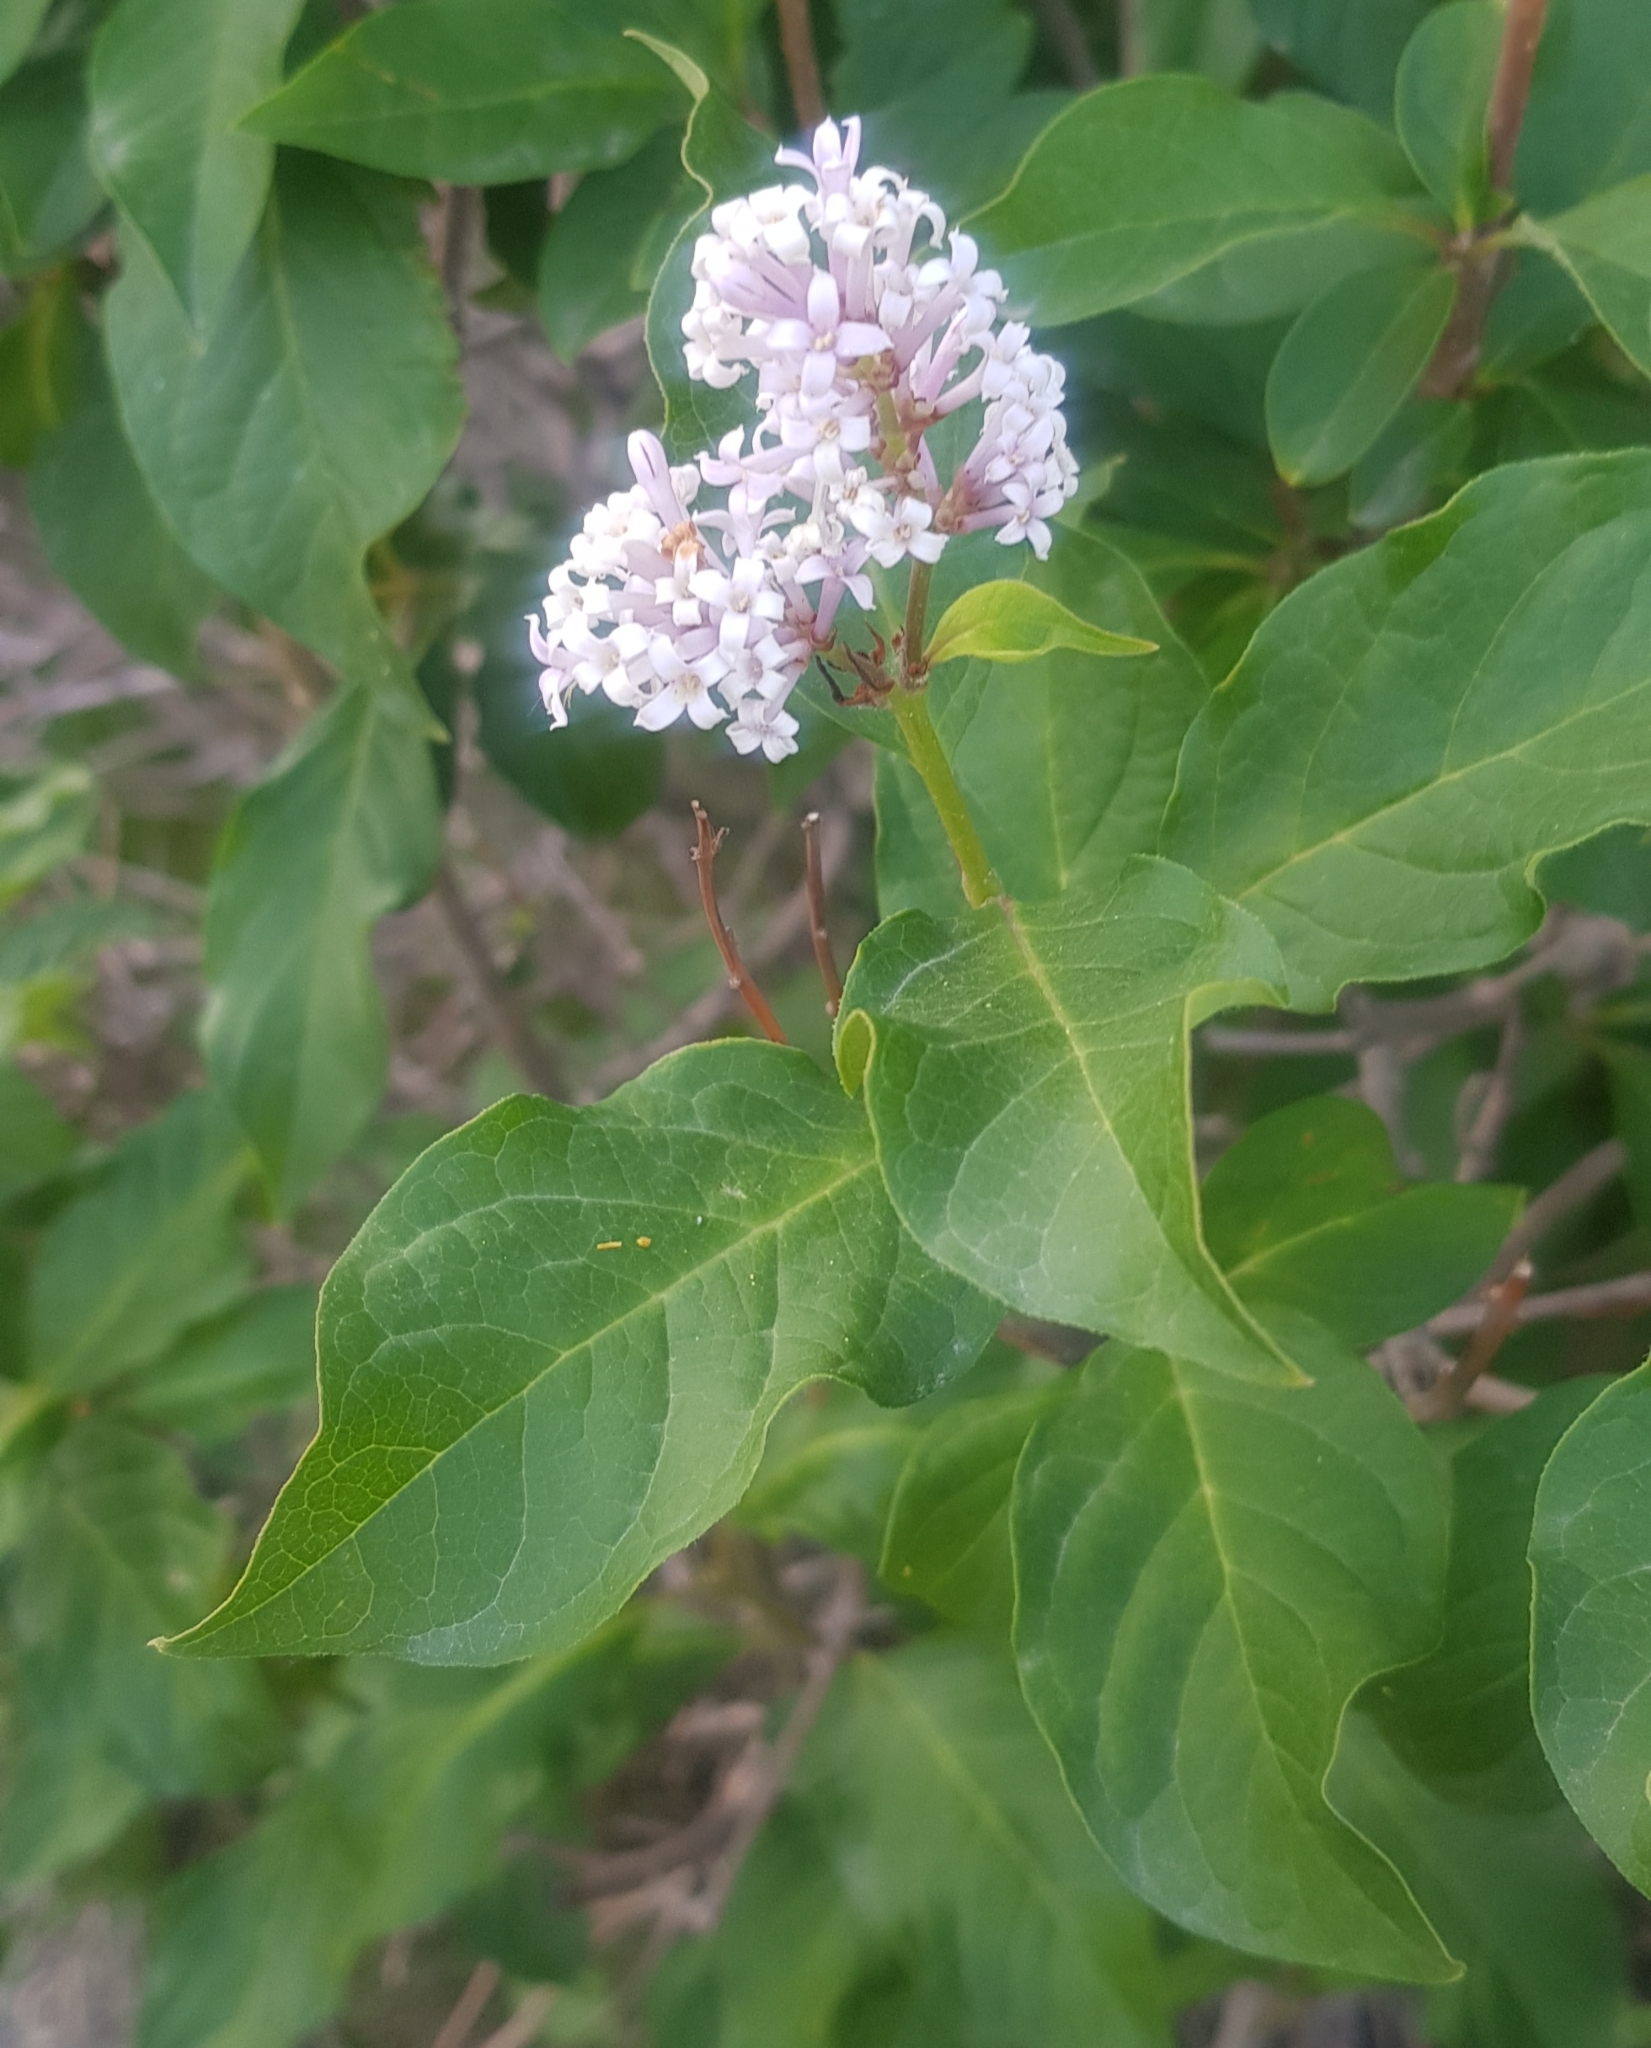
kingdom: Plantae
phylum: Tracheophyta
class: Magnoliopsida
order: Lamiales
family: Oleaceae
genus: Syringa
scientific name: Syringa josikaea
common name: Hungarian lilac
